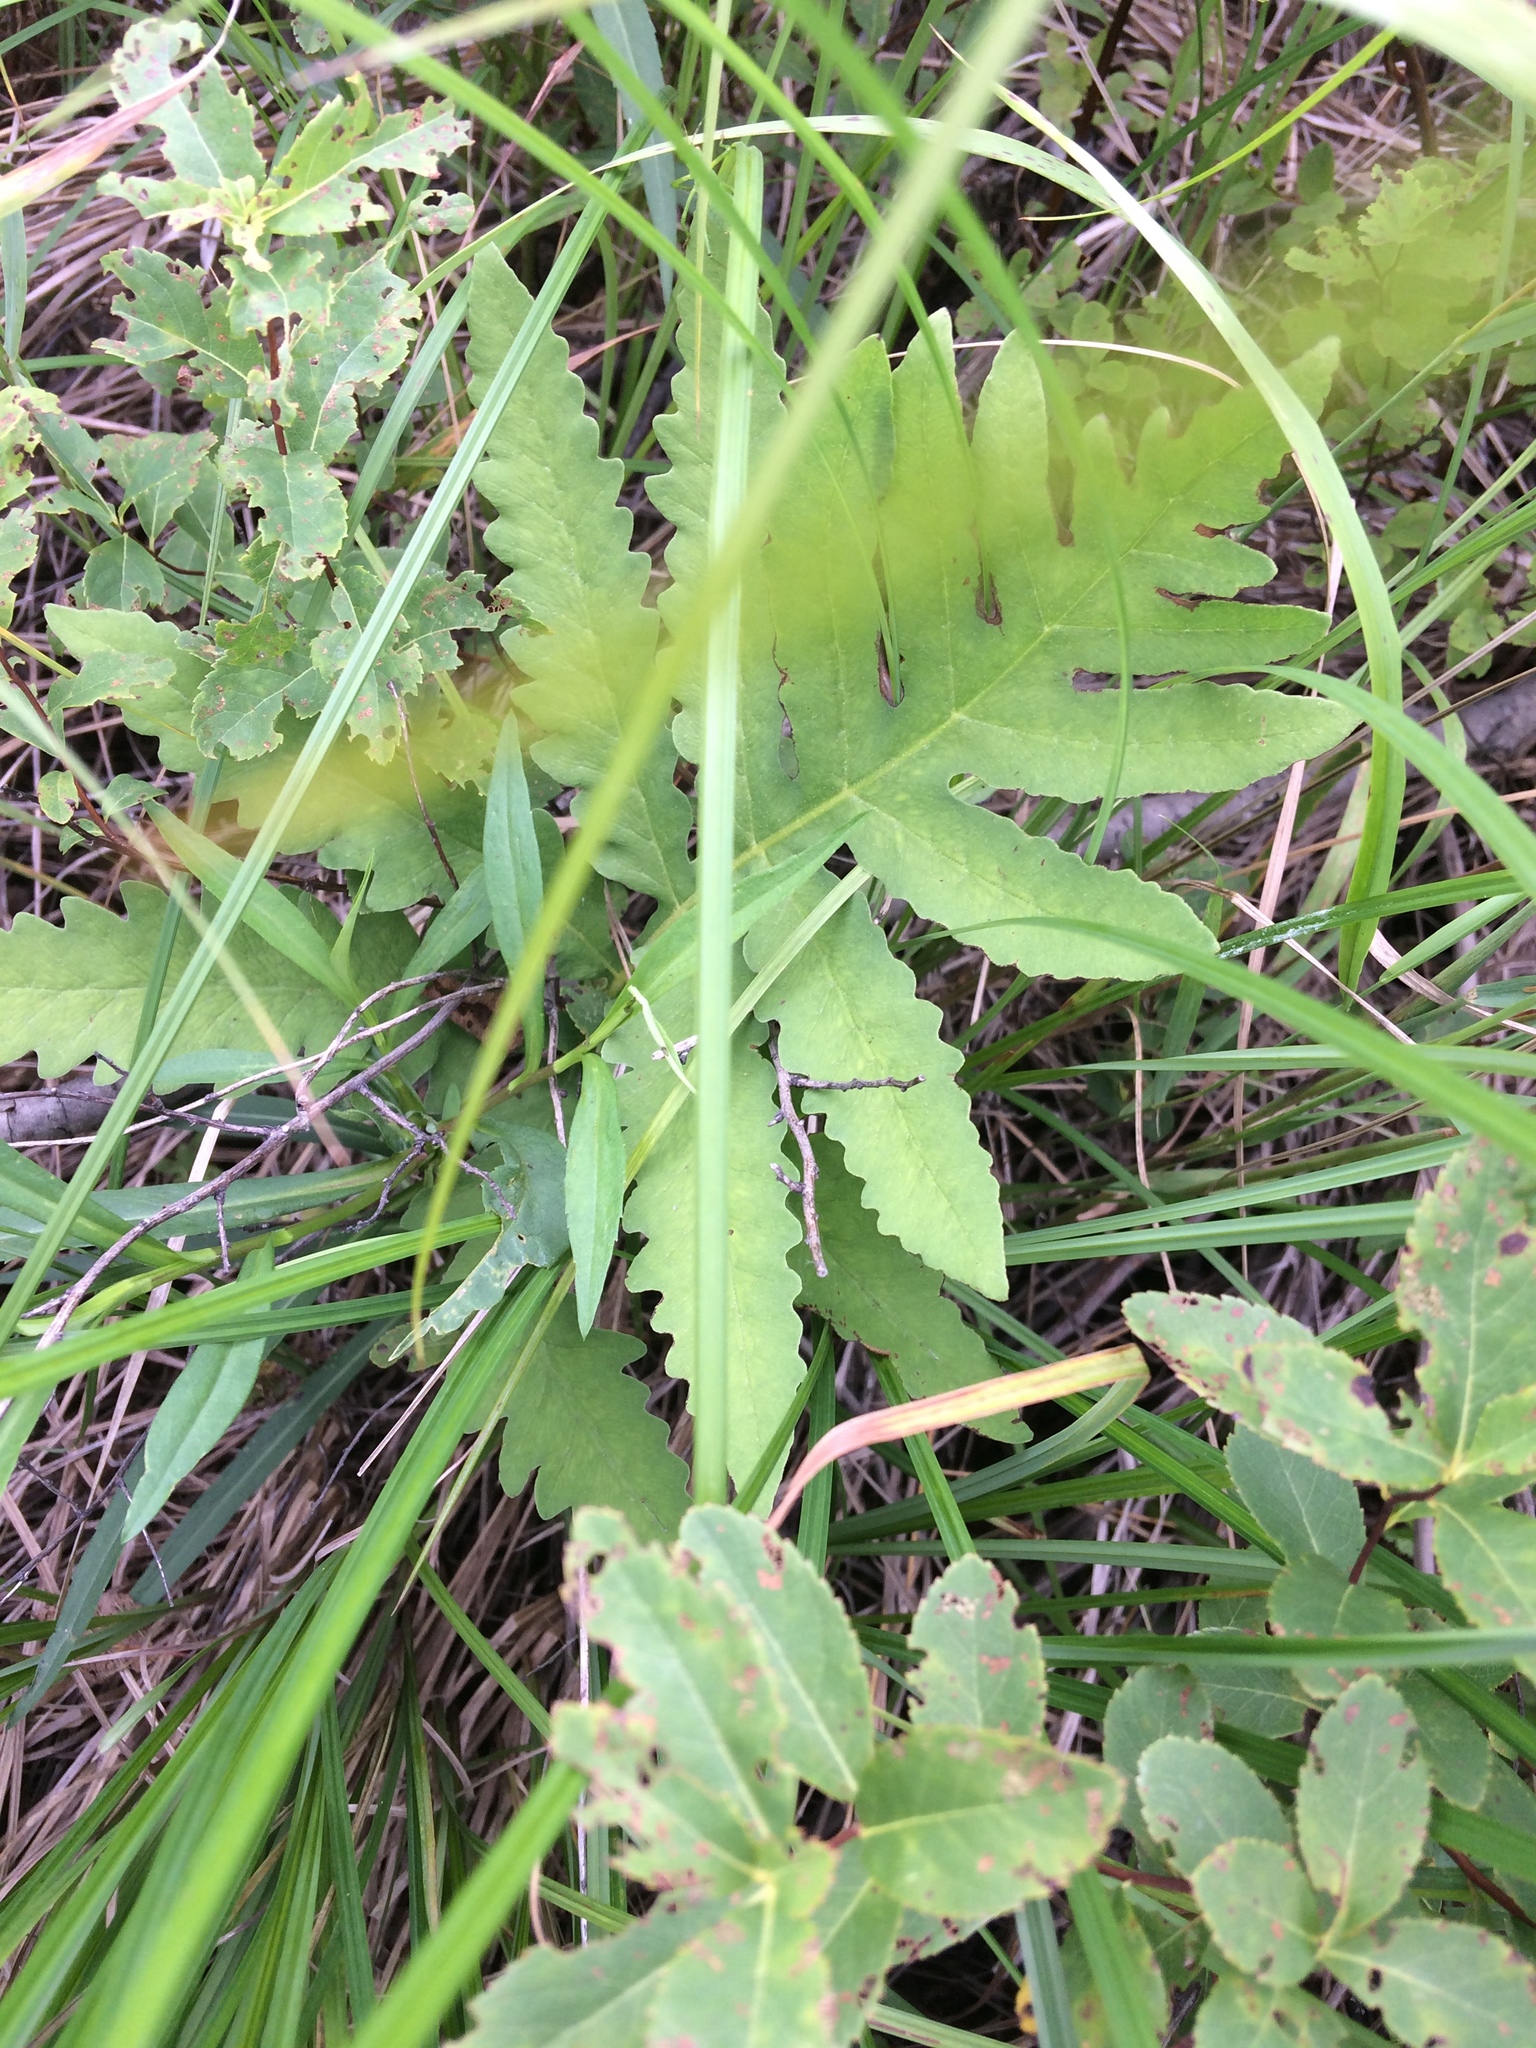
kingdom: Plantae
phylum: Tracheophyta
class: Polypodiopsida
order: Polypodiales
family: Onocleaceae
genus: Onoclea
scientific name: Onoclea sensibilis
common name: Sensitive fern
